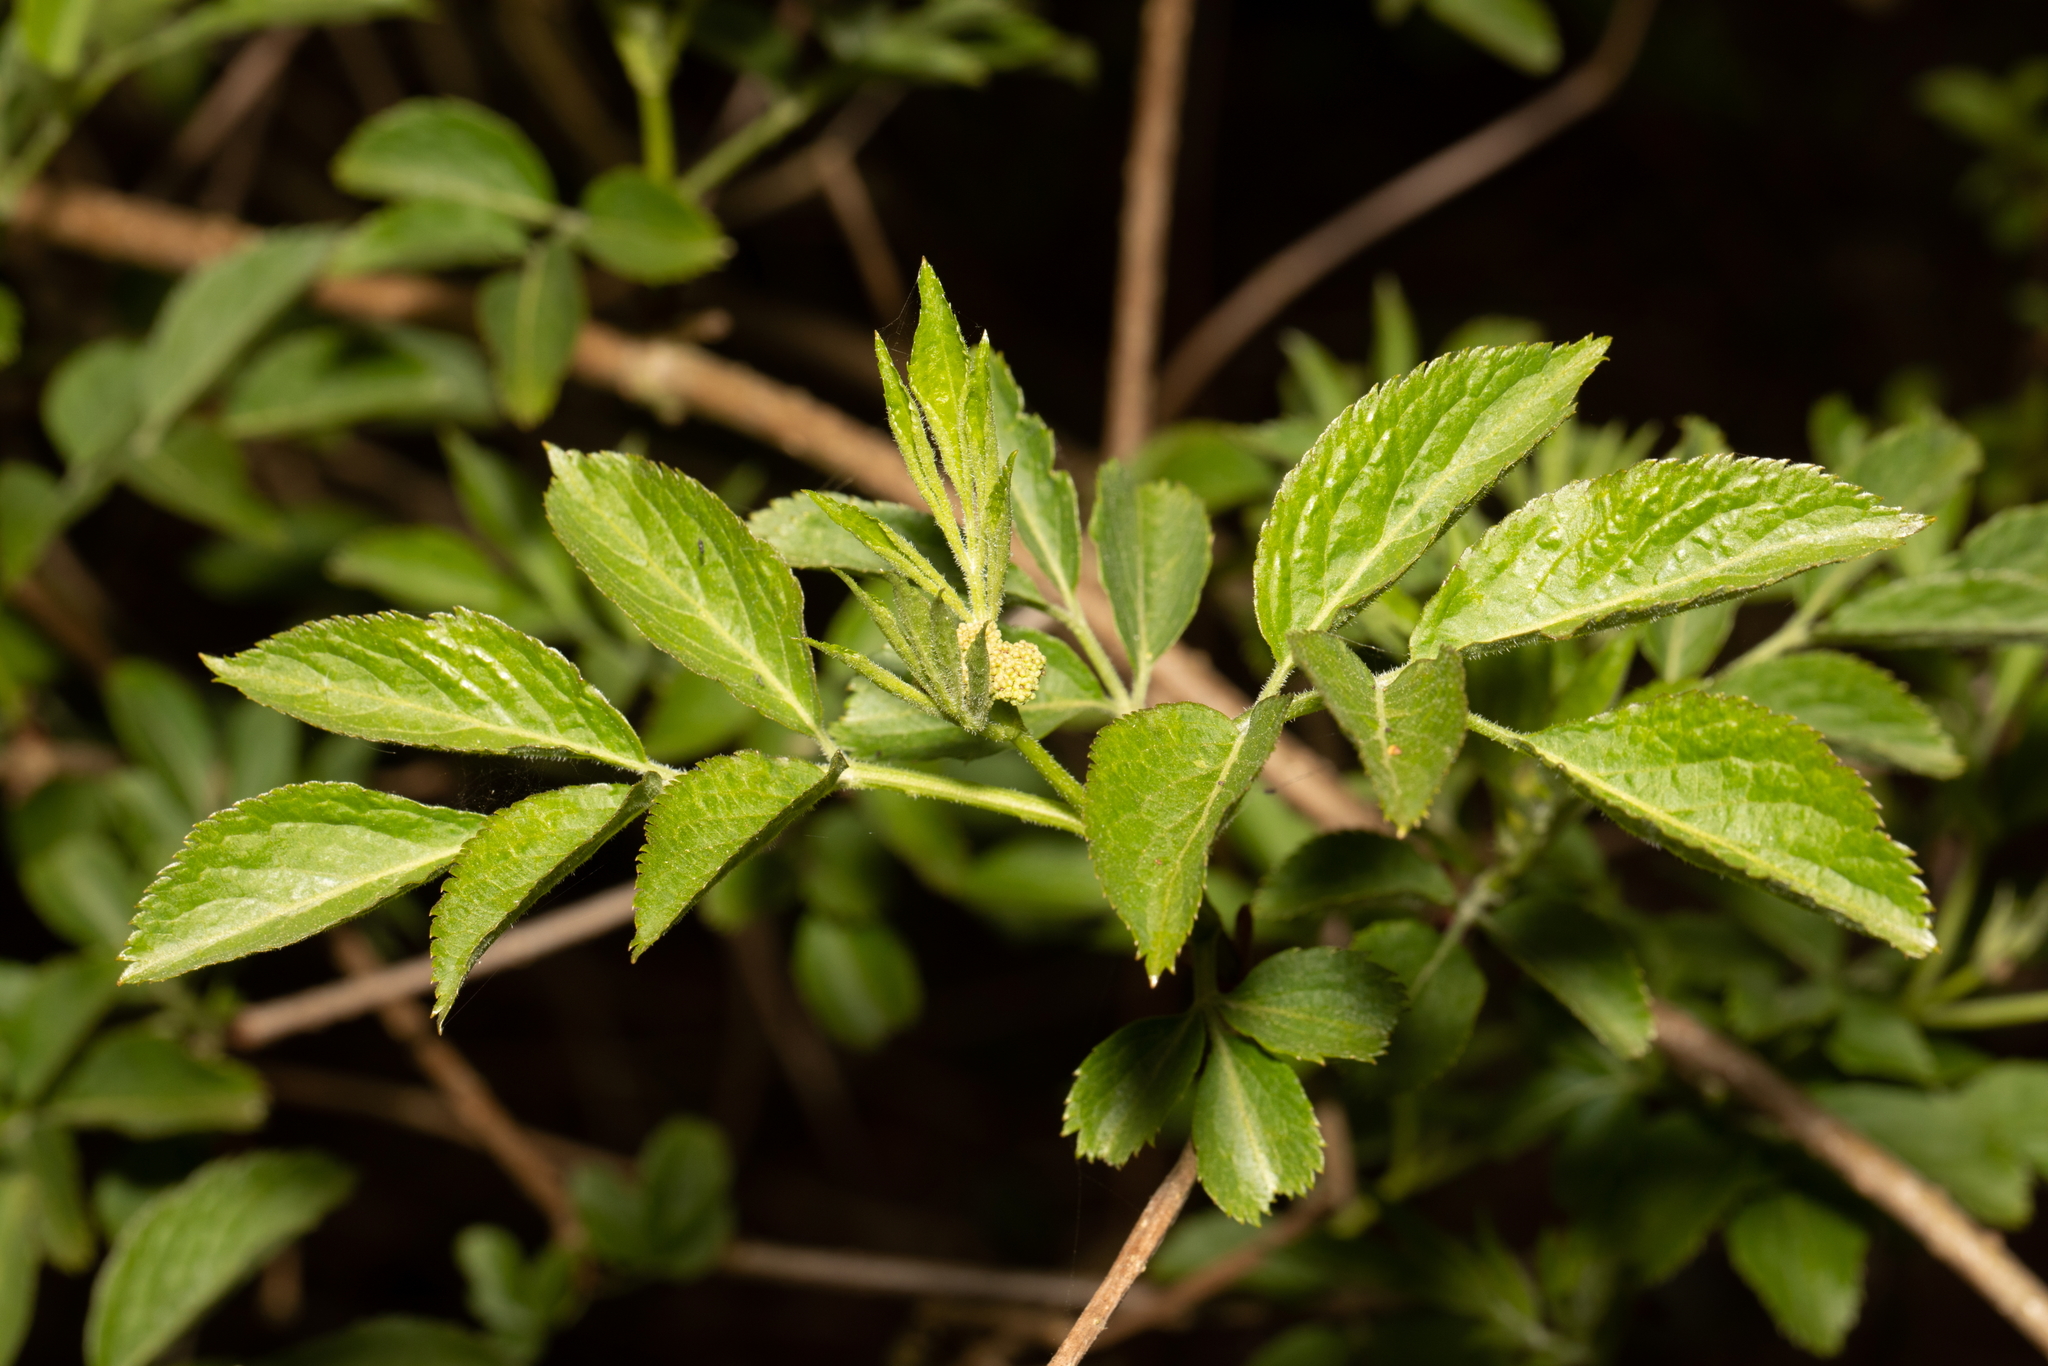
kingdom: Plantae
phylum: Tracheophyta
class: Magnoliopsida
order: Dipsacales
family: Viburnaceae
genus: Sambucus
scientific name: Sambucus nigra
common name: Elder
